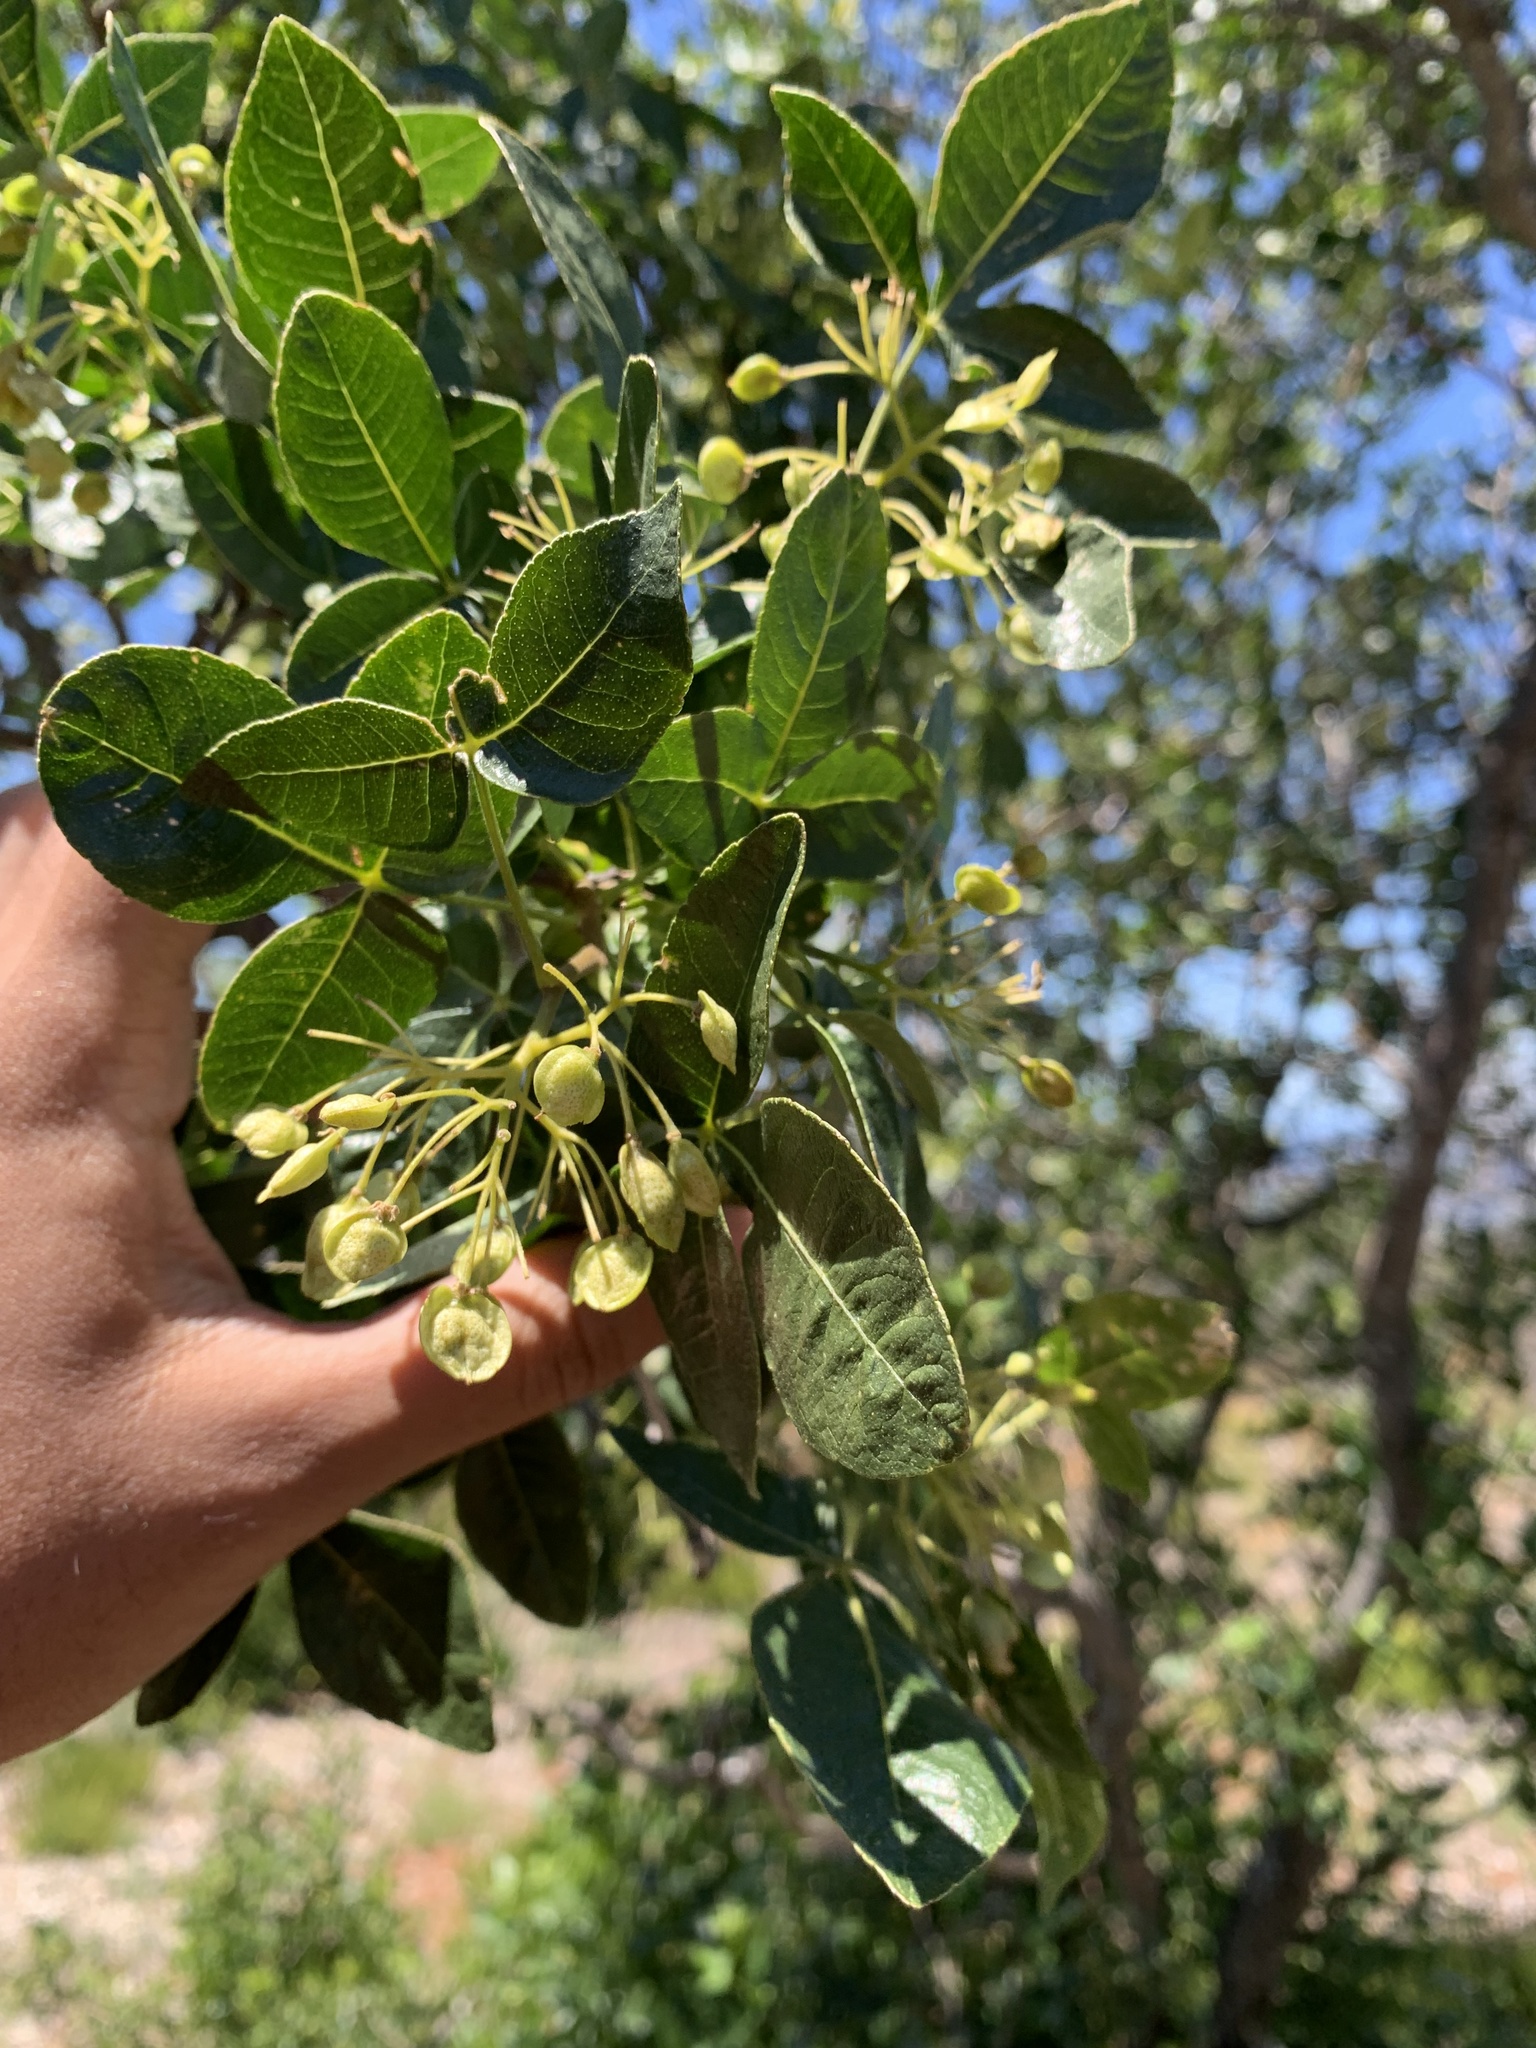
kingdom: Plantae
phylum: Tracheophyta
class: Magnoliopsida
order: Sapindales
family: Rutaceae
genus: Ptelea
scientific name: Ptelea crenulata
